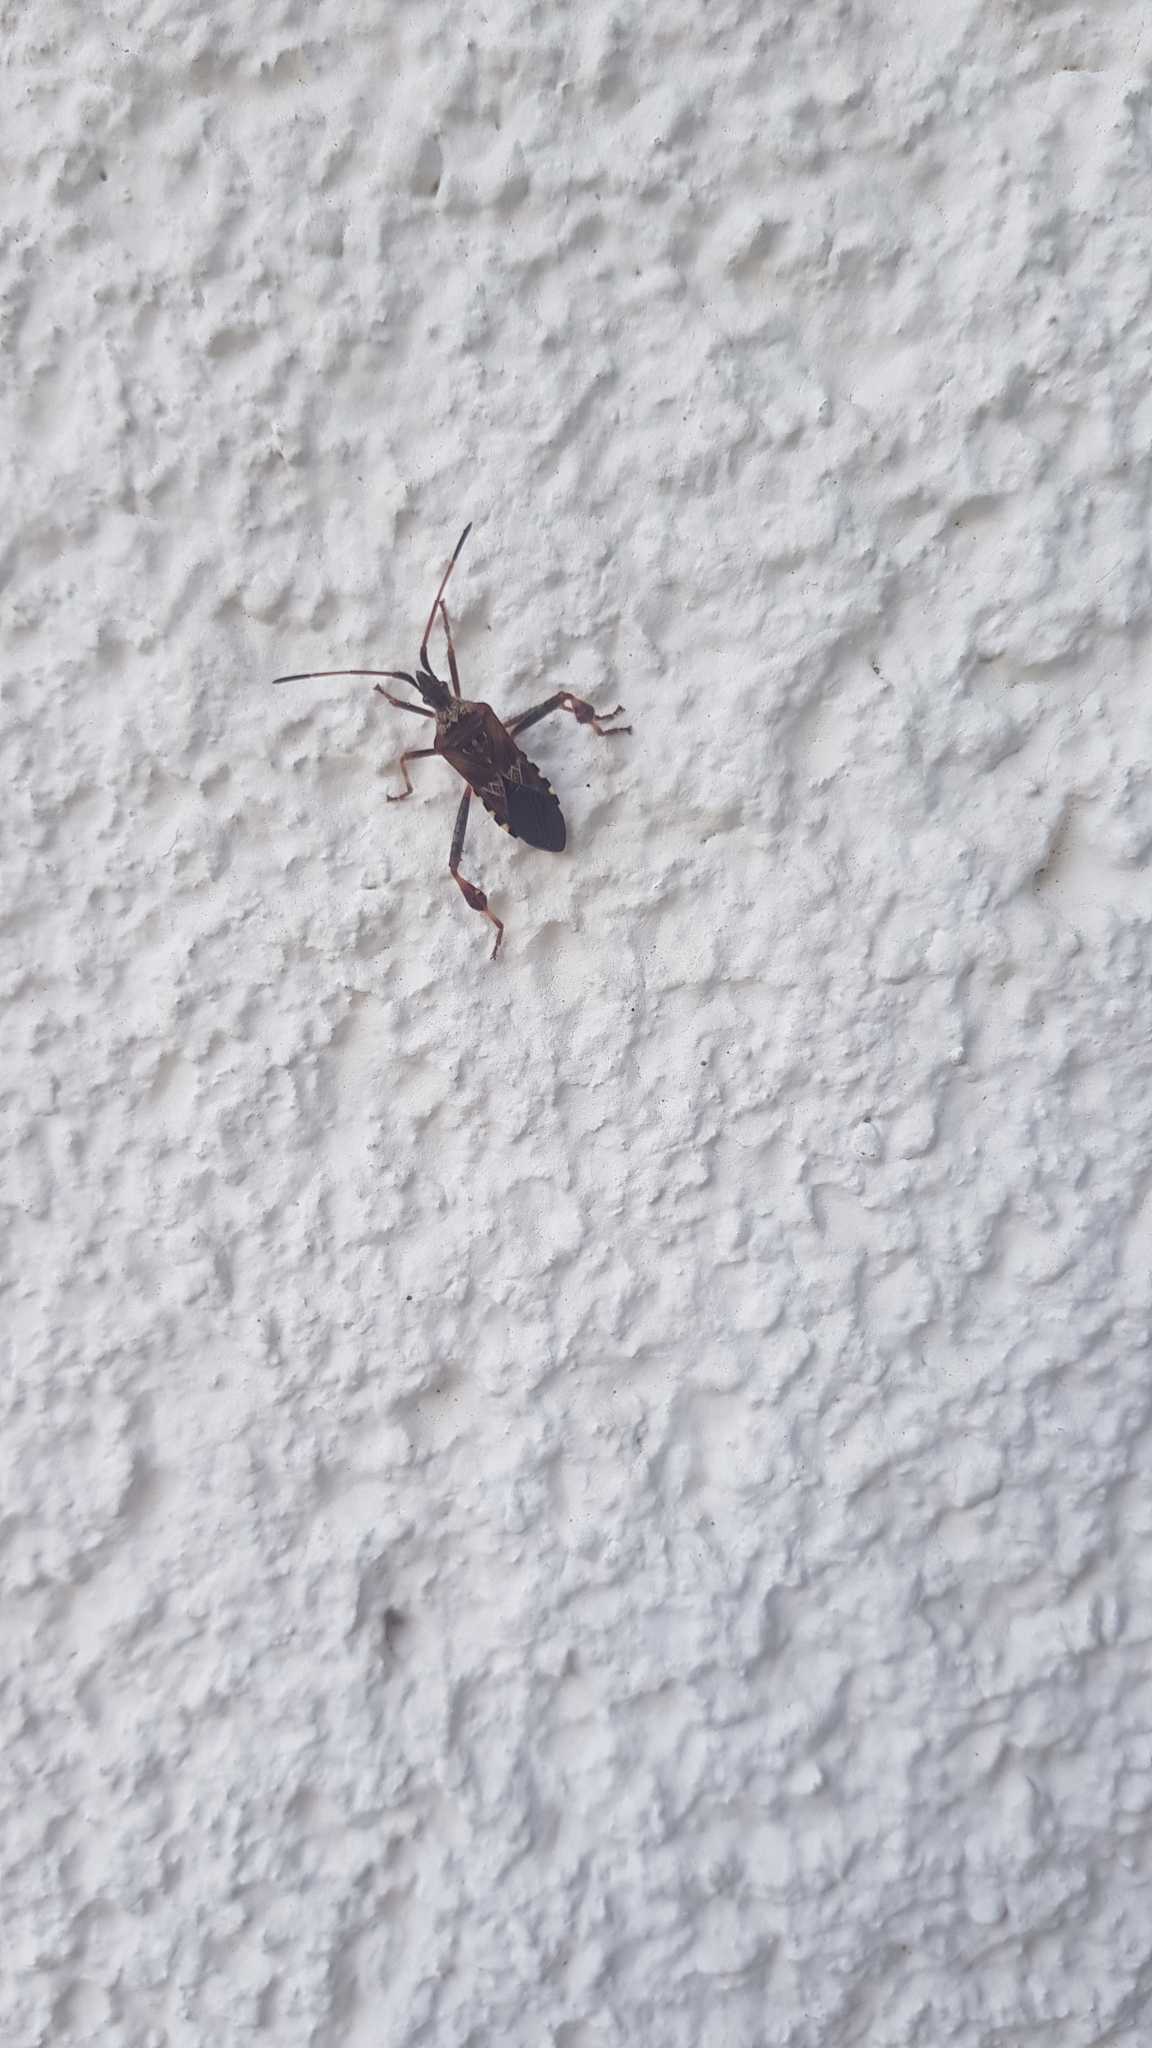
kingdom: Animalia
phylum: Arthropoda
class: Insecta
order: Hemiptera
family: Coreidae
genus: Leptoglossus
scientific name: Leptoglossus occidentalis
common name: Western conifer-seed bug
